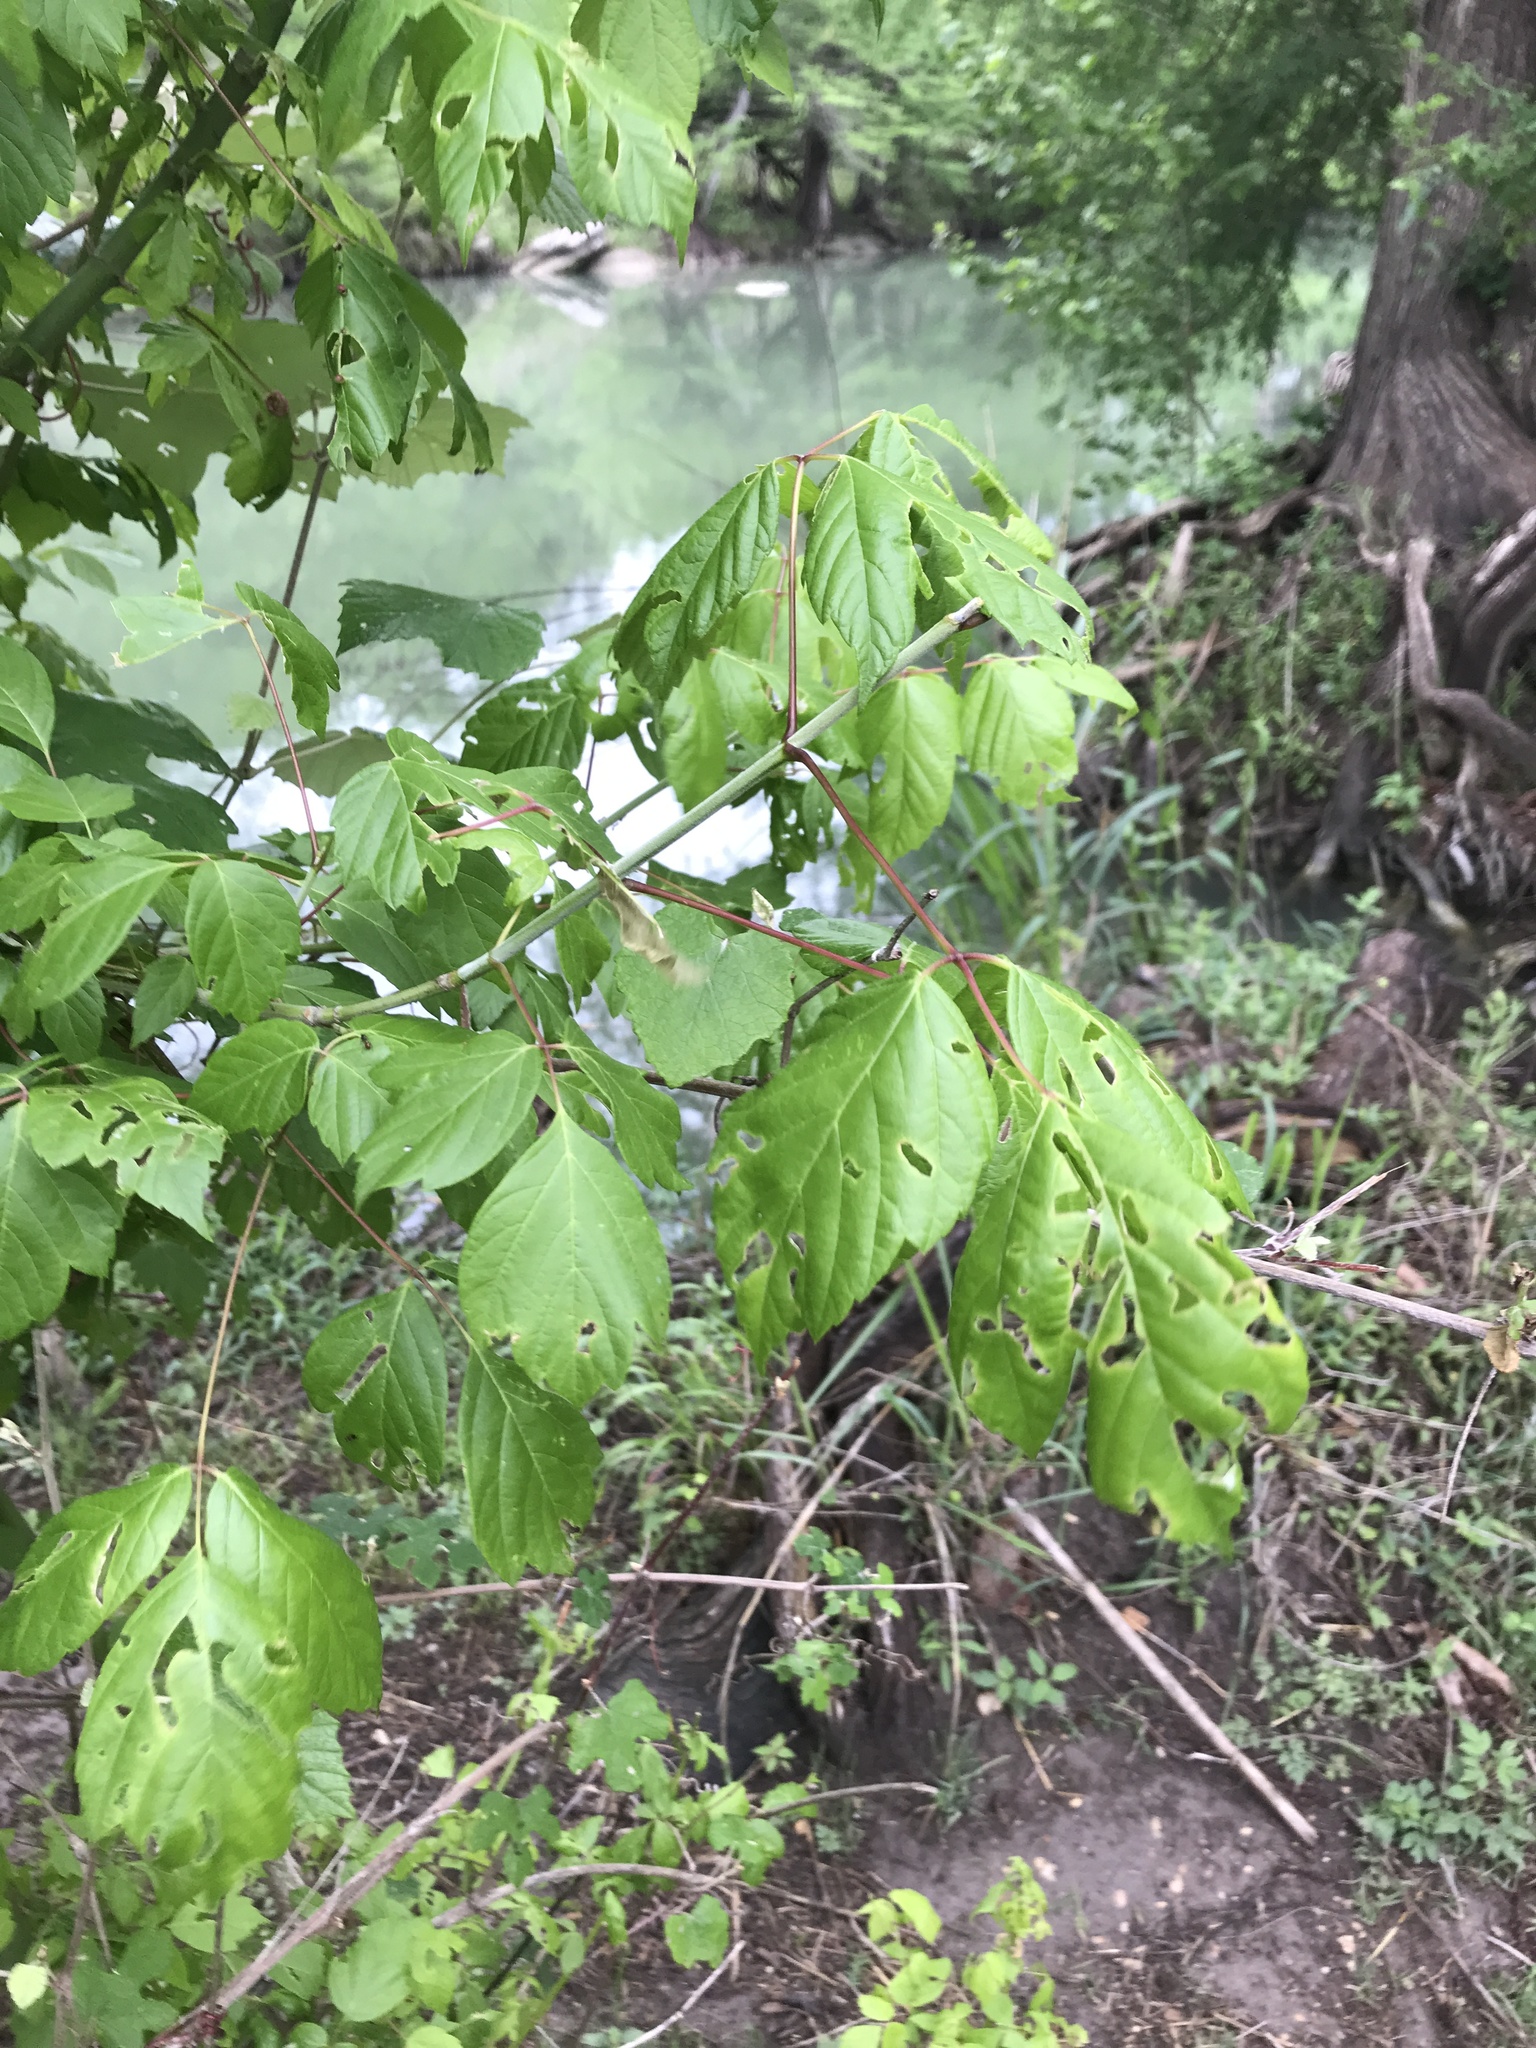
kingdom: Plantae
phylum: Tracheophyta
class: Magnoliopsida
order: Sapindales
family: Sapindaceae
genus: Acer
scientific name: Acer negundo
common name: Ashleaf maple
